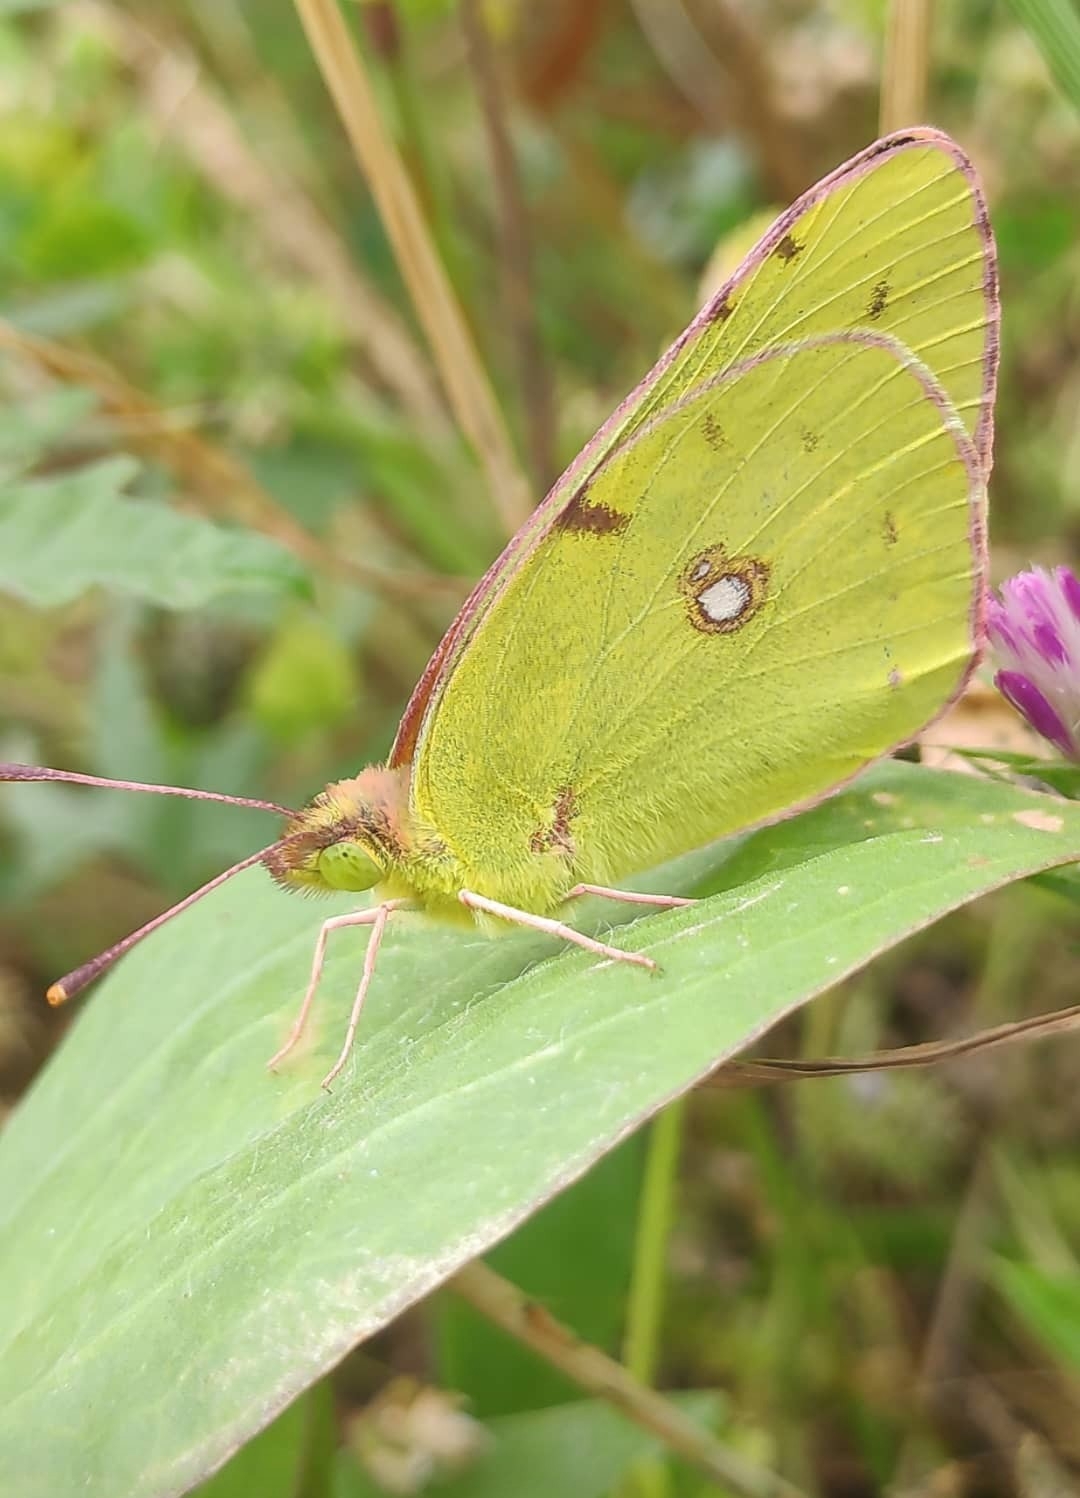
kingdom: Animalia
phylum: Arthropoda
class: Insecta
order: Lepidoptera
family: Pieridae
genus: Colias
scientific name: Colias alfacariensis
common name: Berger's clouded yellow
